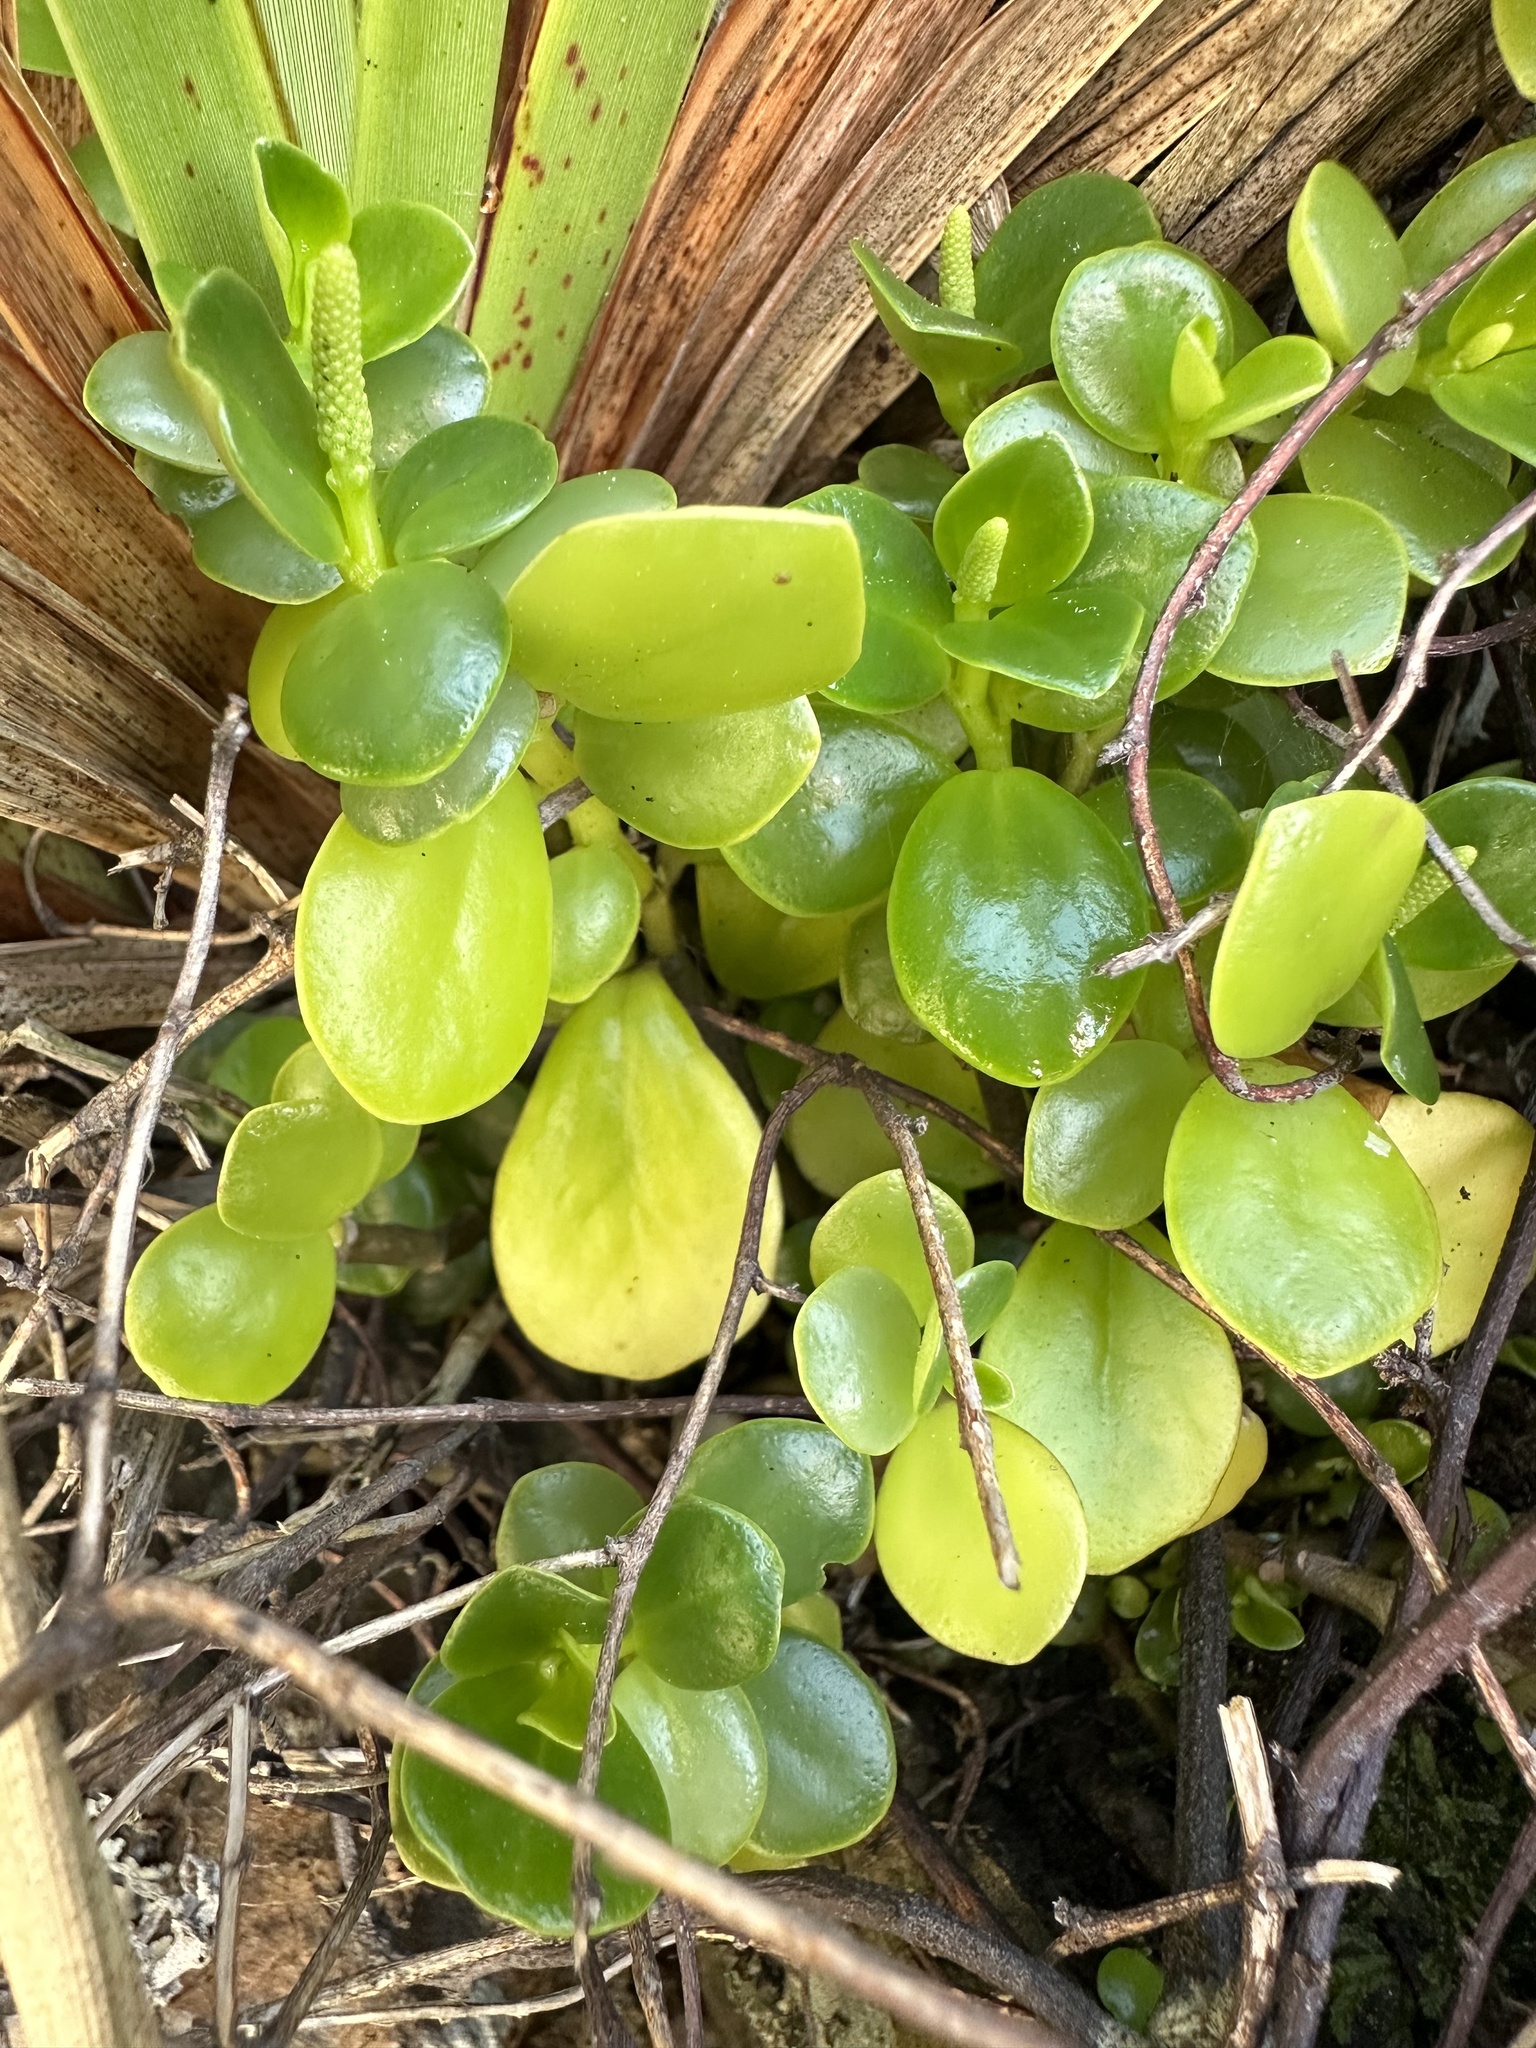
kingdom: Plantae
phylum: Tracheophyta
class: Magnoliopsida
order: Piperales
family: Piperaceae
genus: Peperomia
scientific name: Peperomia urvilleana
